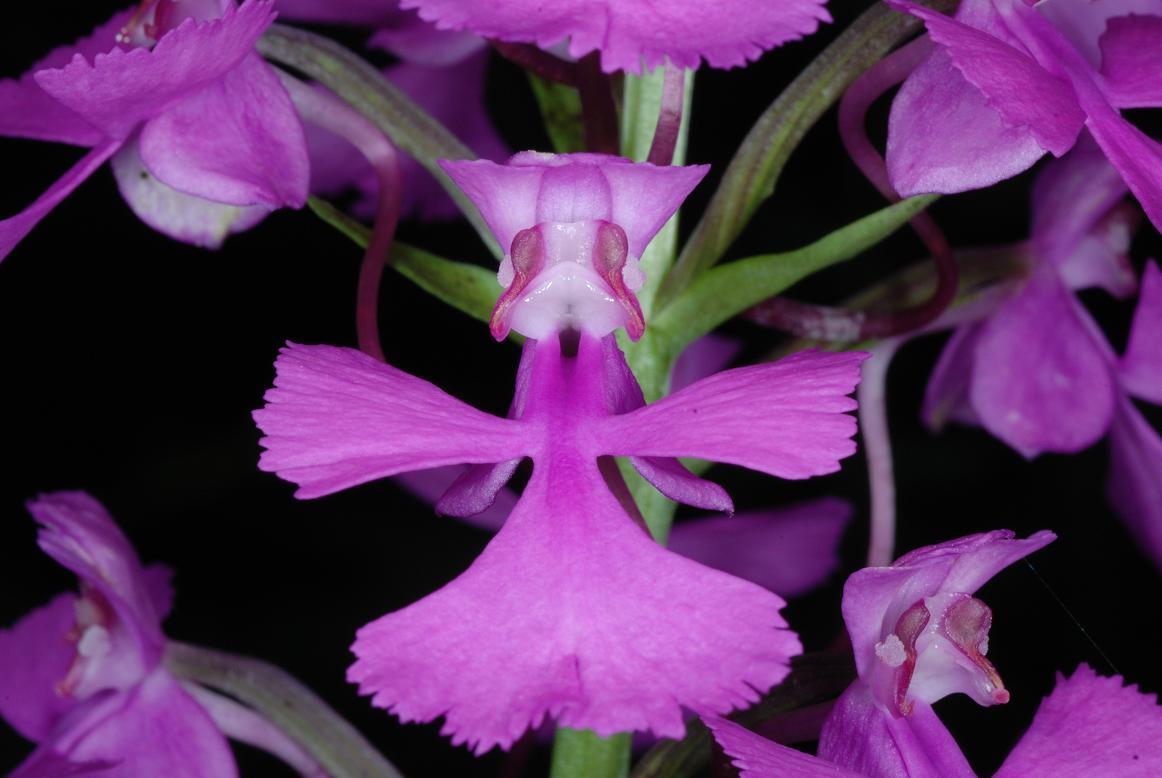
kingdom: Plantae
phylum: Tracheophyta
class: Liliopsida
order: Asparagales
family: Orchidaceae
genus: Platanthera
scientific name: Platanthera peramoena
